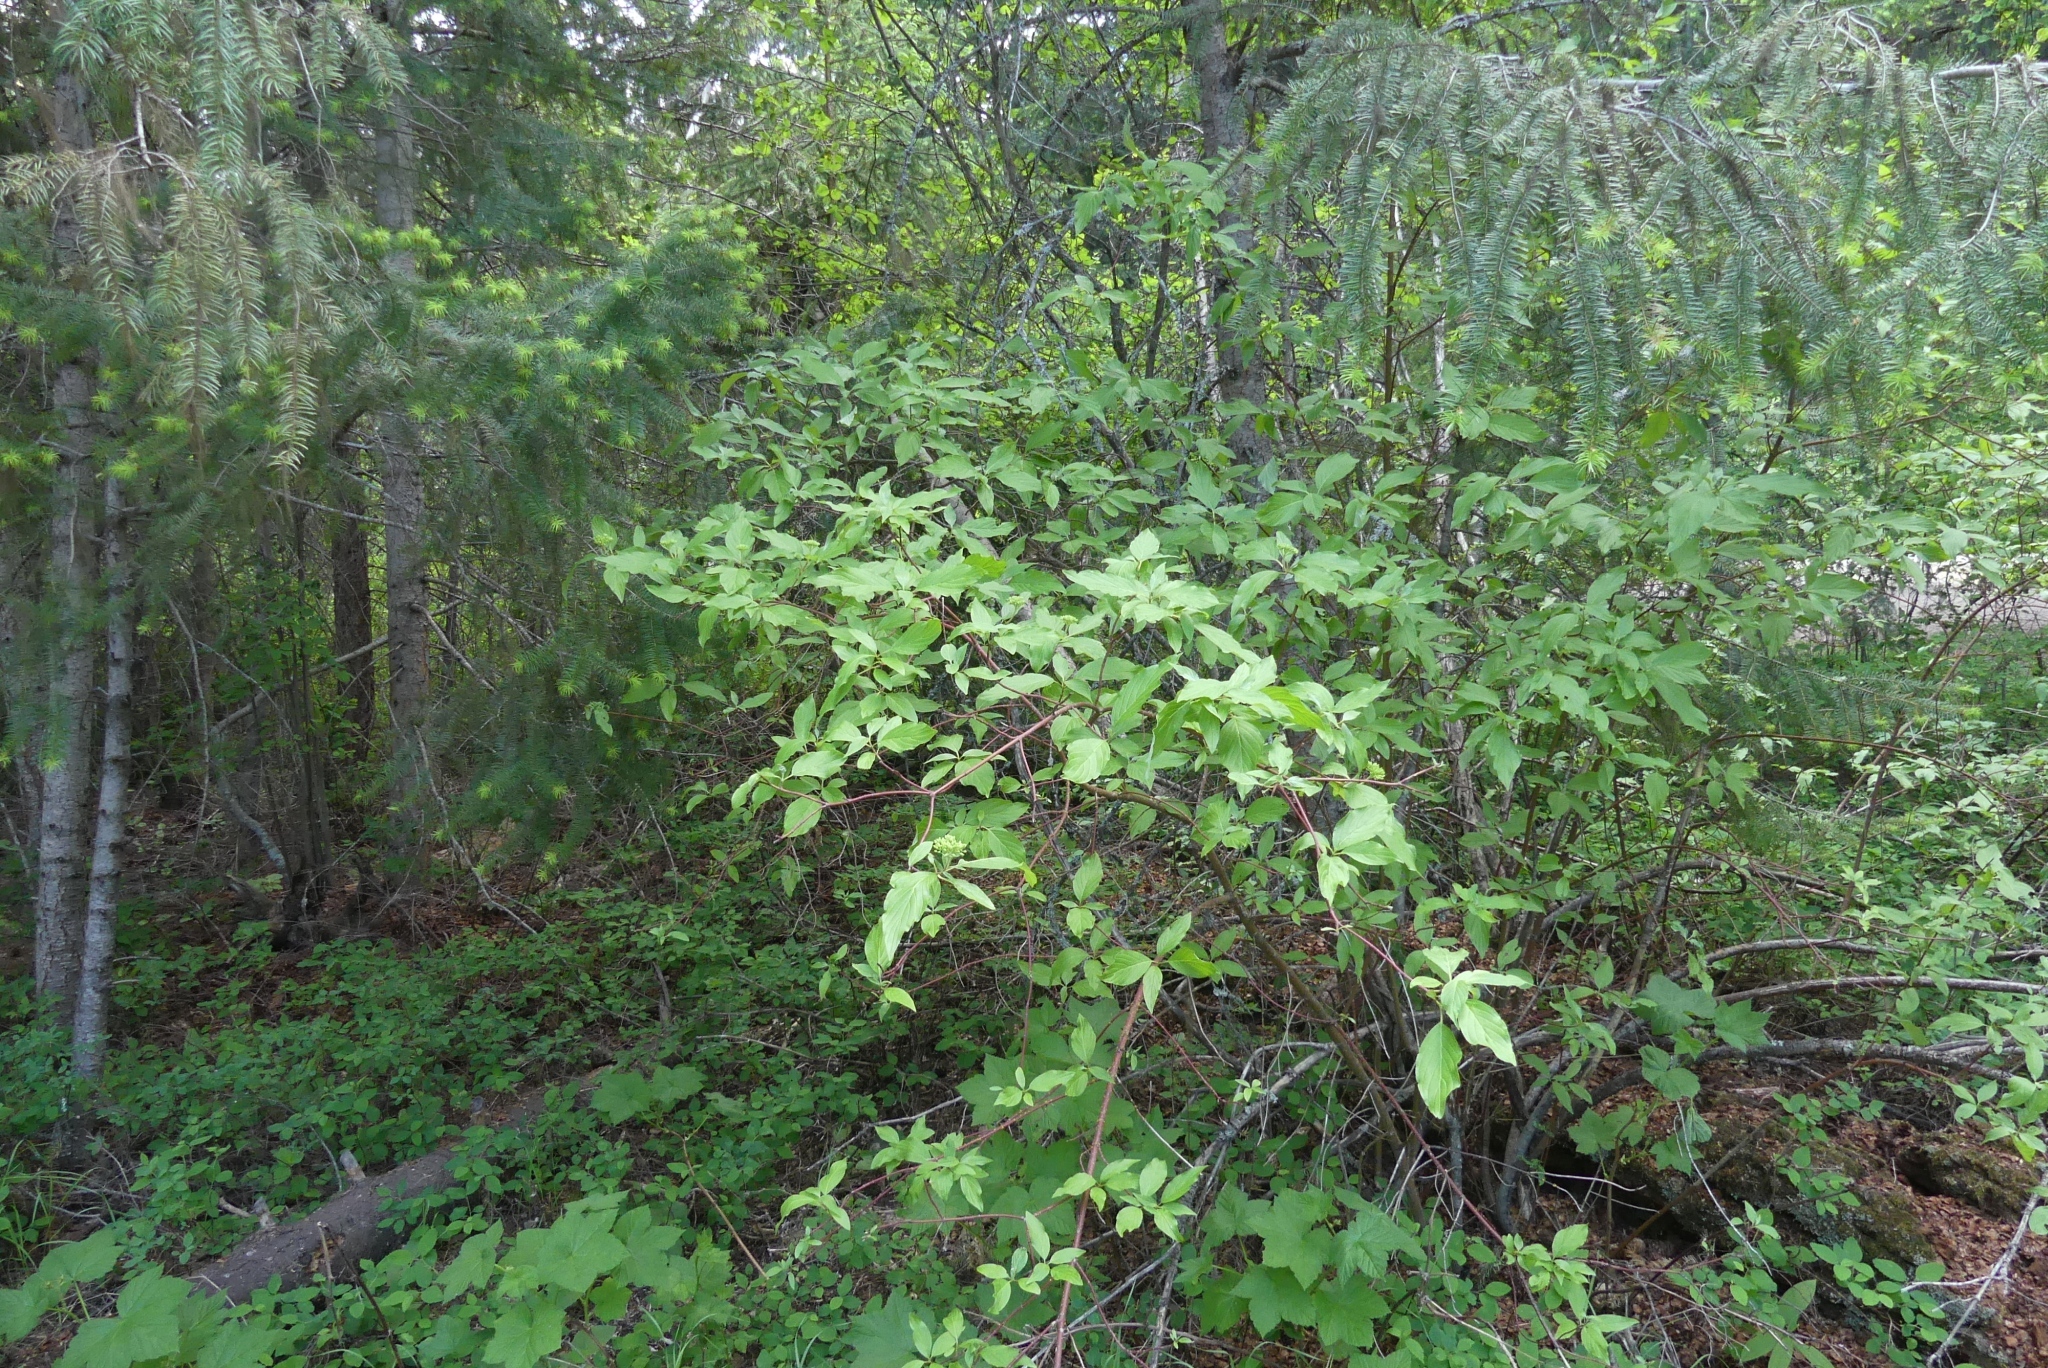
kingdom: Plantae
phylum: Tracheophyta
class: Magnoliopsida
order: Cornales
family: Cornaceae
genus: Cornus
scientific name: Cornus sericea
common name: Red-osier dogwood
